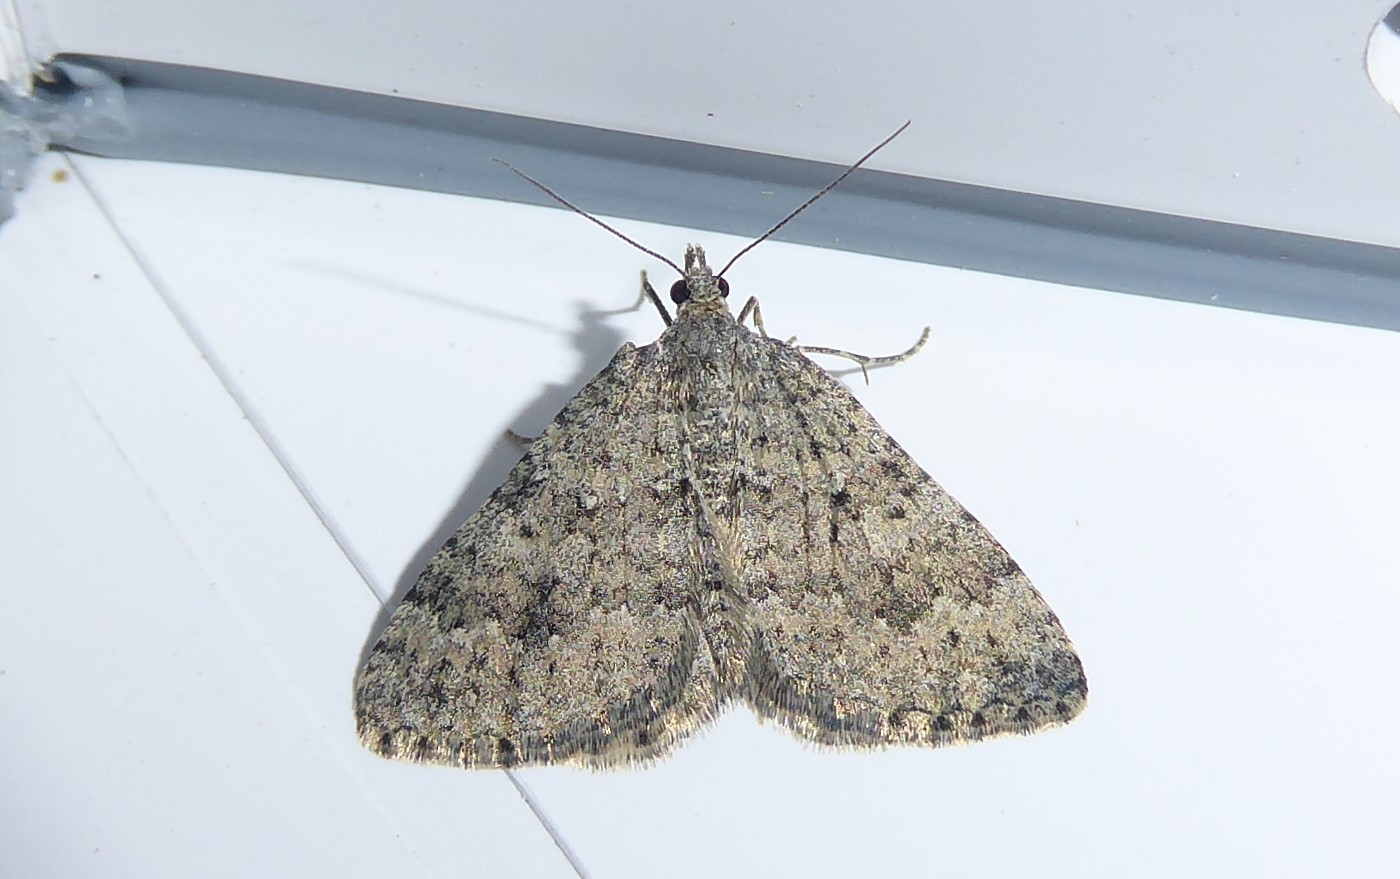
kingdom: Animalia
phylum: Arthropoda
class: Insecta
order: Lepidoptera
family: Geometridae
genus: Helastia
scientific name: Helastia corcularia
